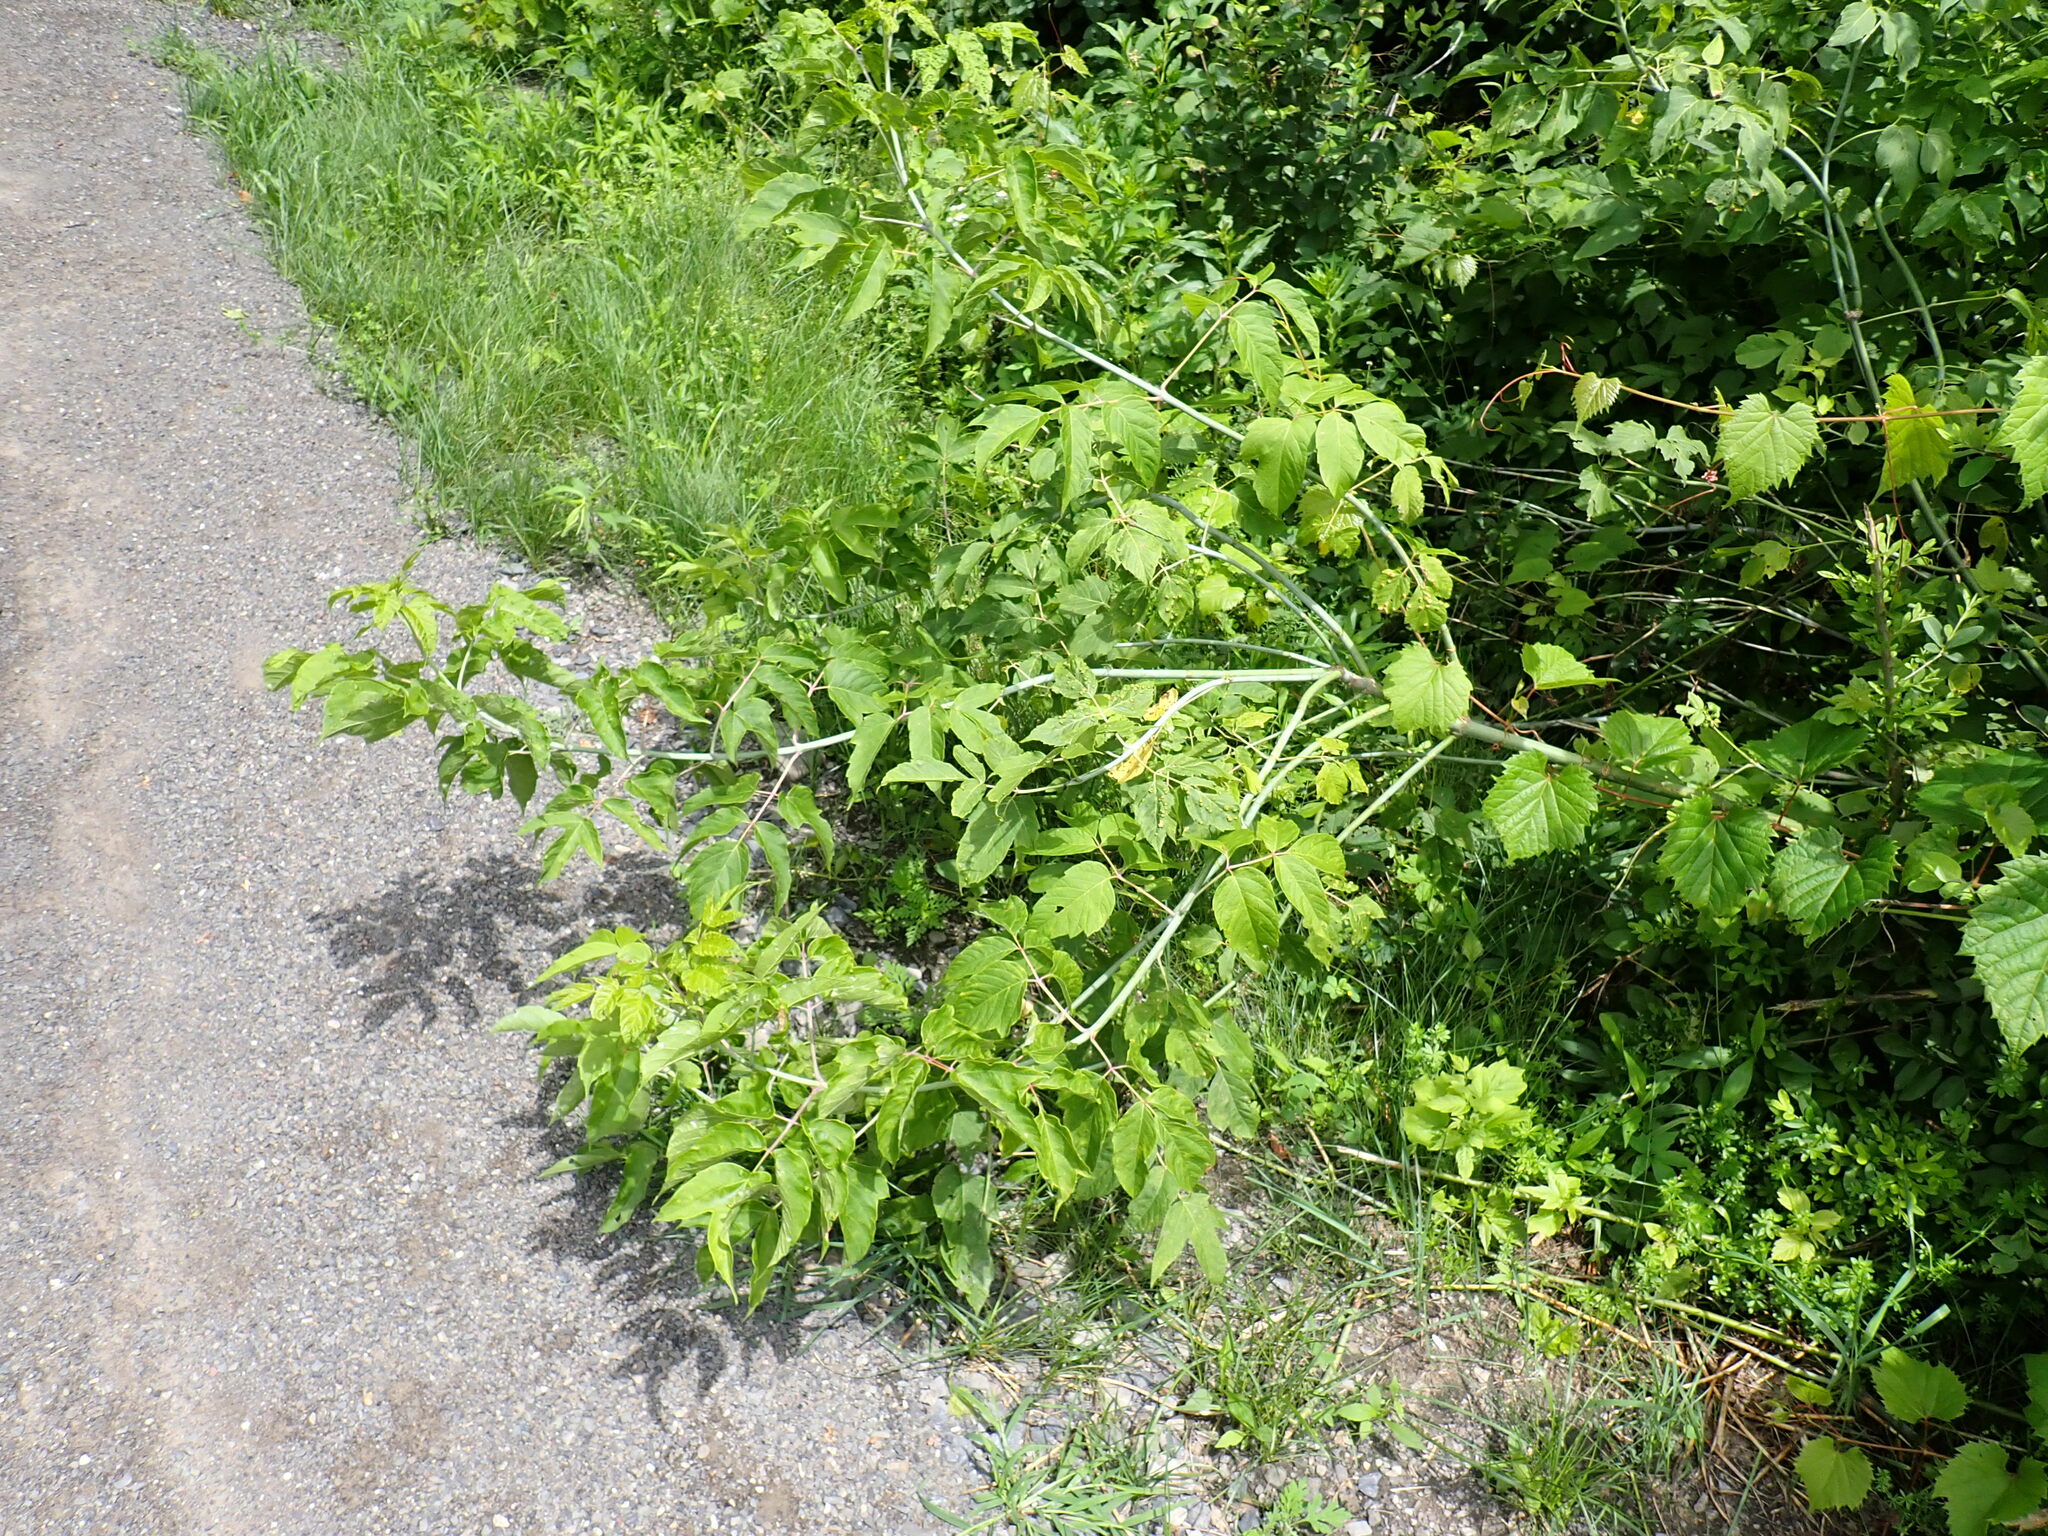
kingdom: Animalia
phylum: Arthropoda
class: Arachnida
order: Trombidiformes
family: Eriophyidae
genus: Aceria
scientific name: Aceria
